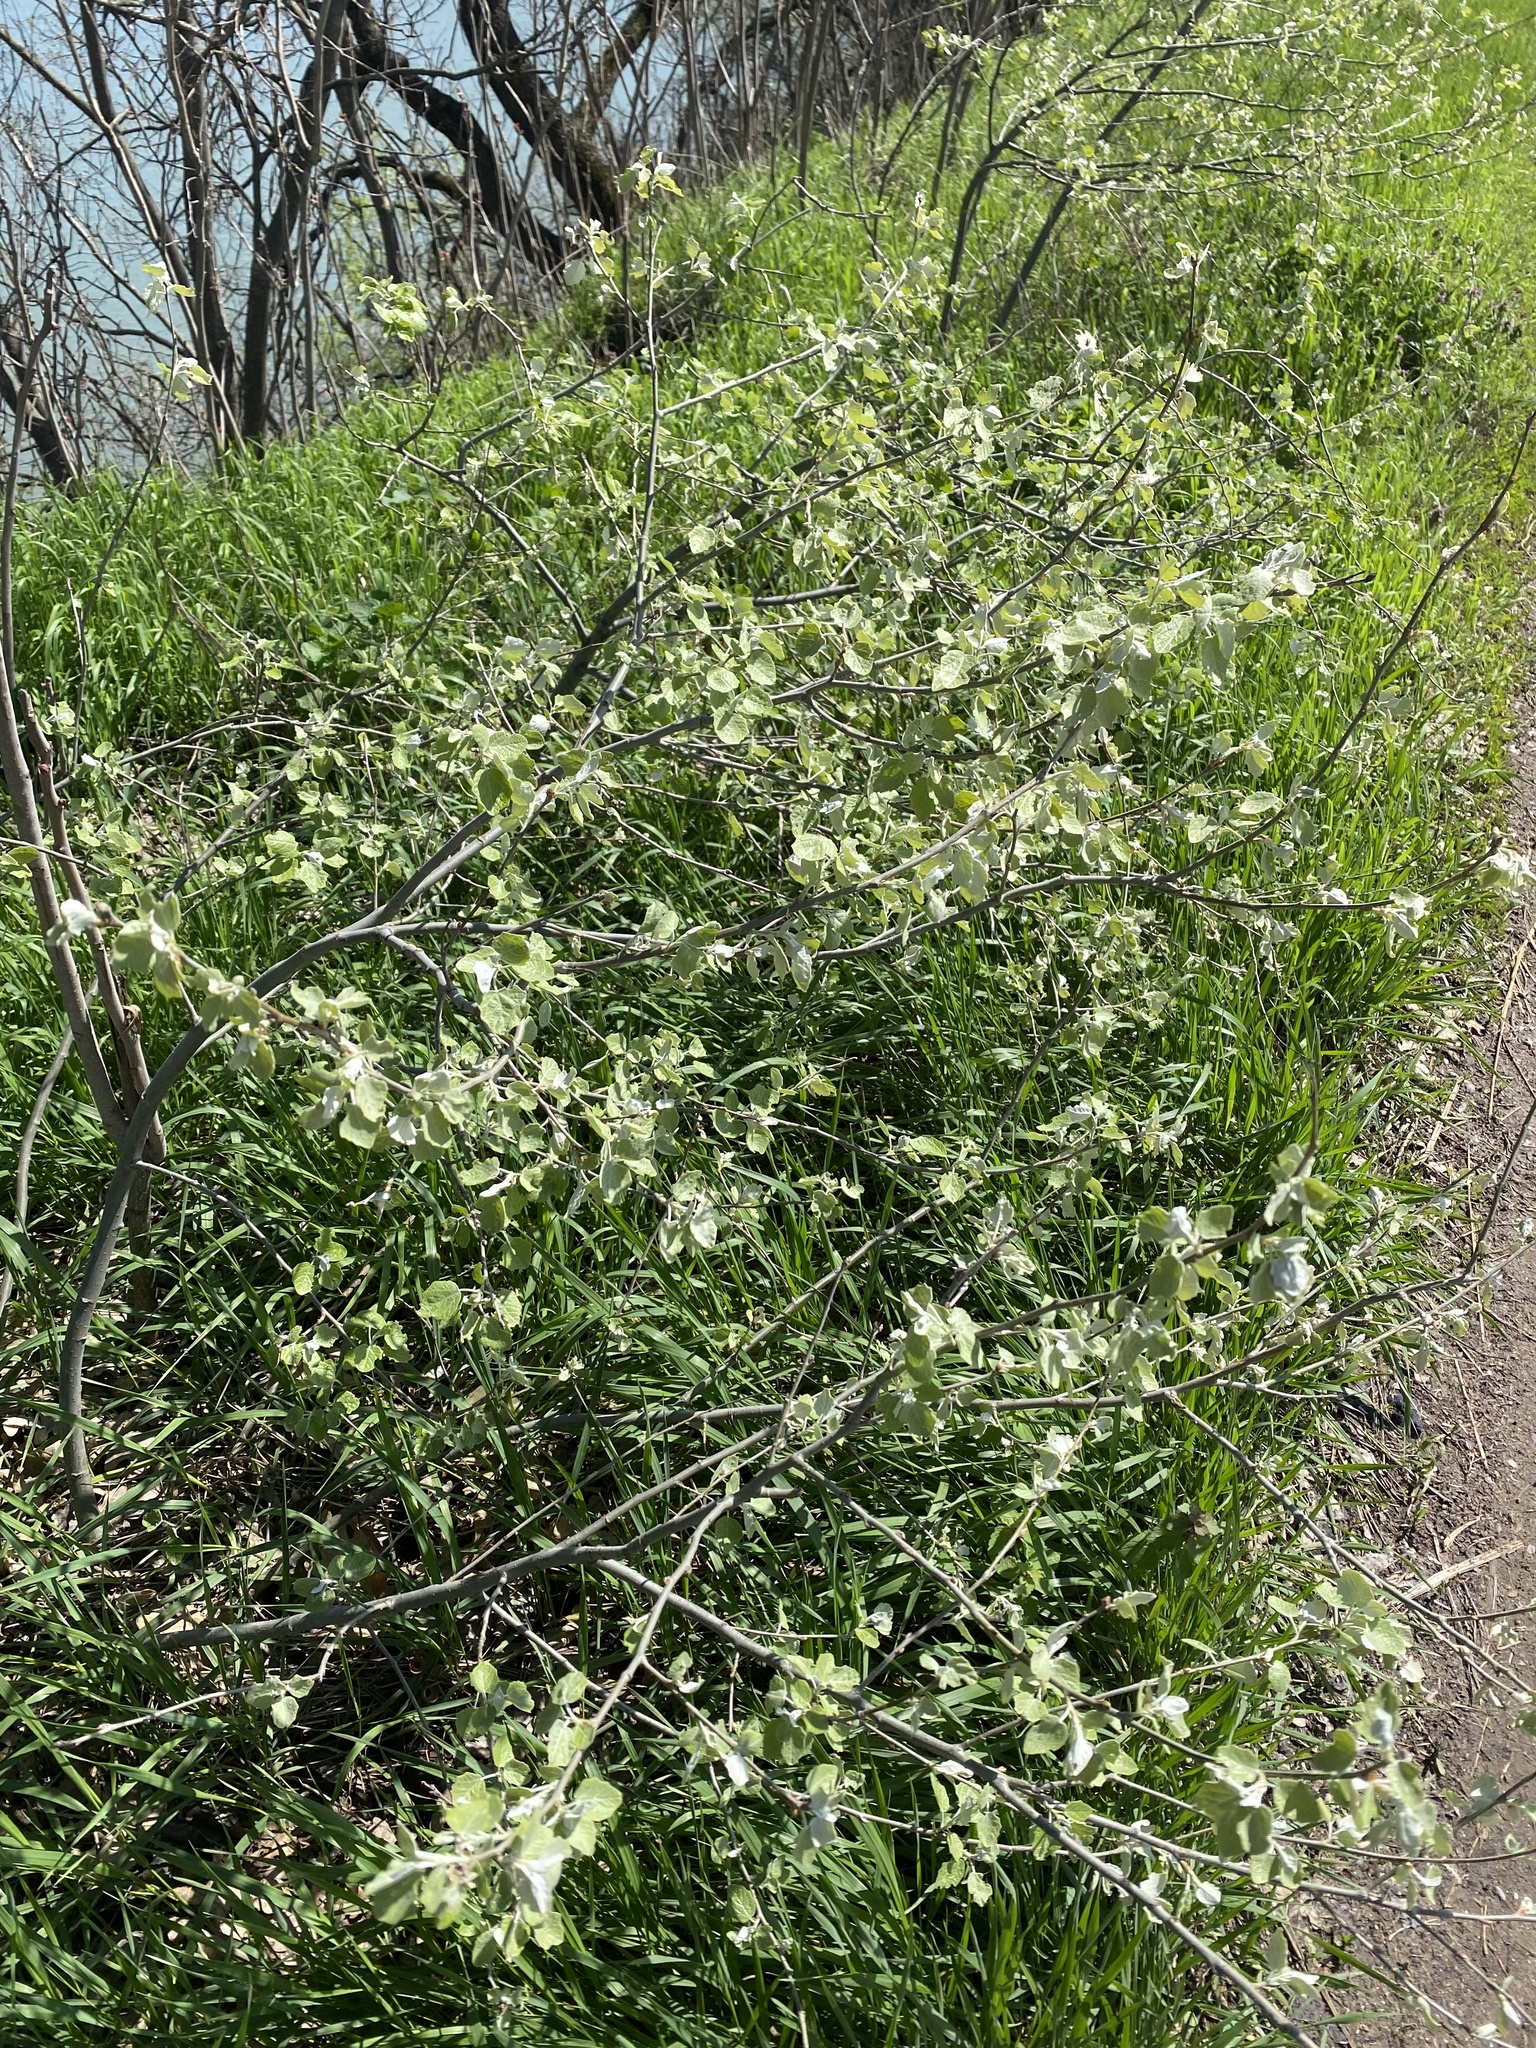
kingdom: Plantae
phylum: Tracheophyta
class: Magnoliopsida
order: Malpighiales
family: Salicaceae
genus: Populus
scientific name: Populus alba
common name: White poplar
